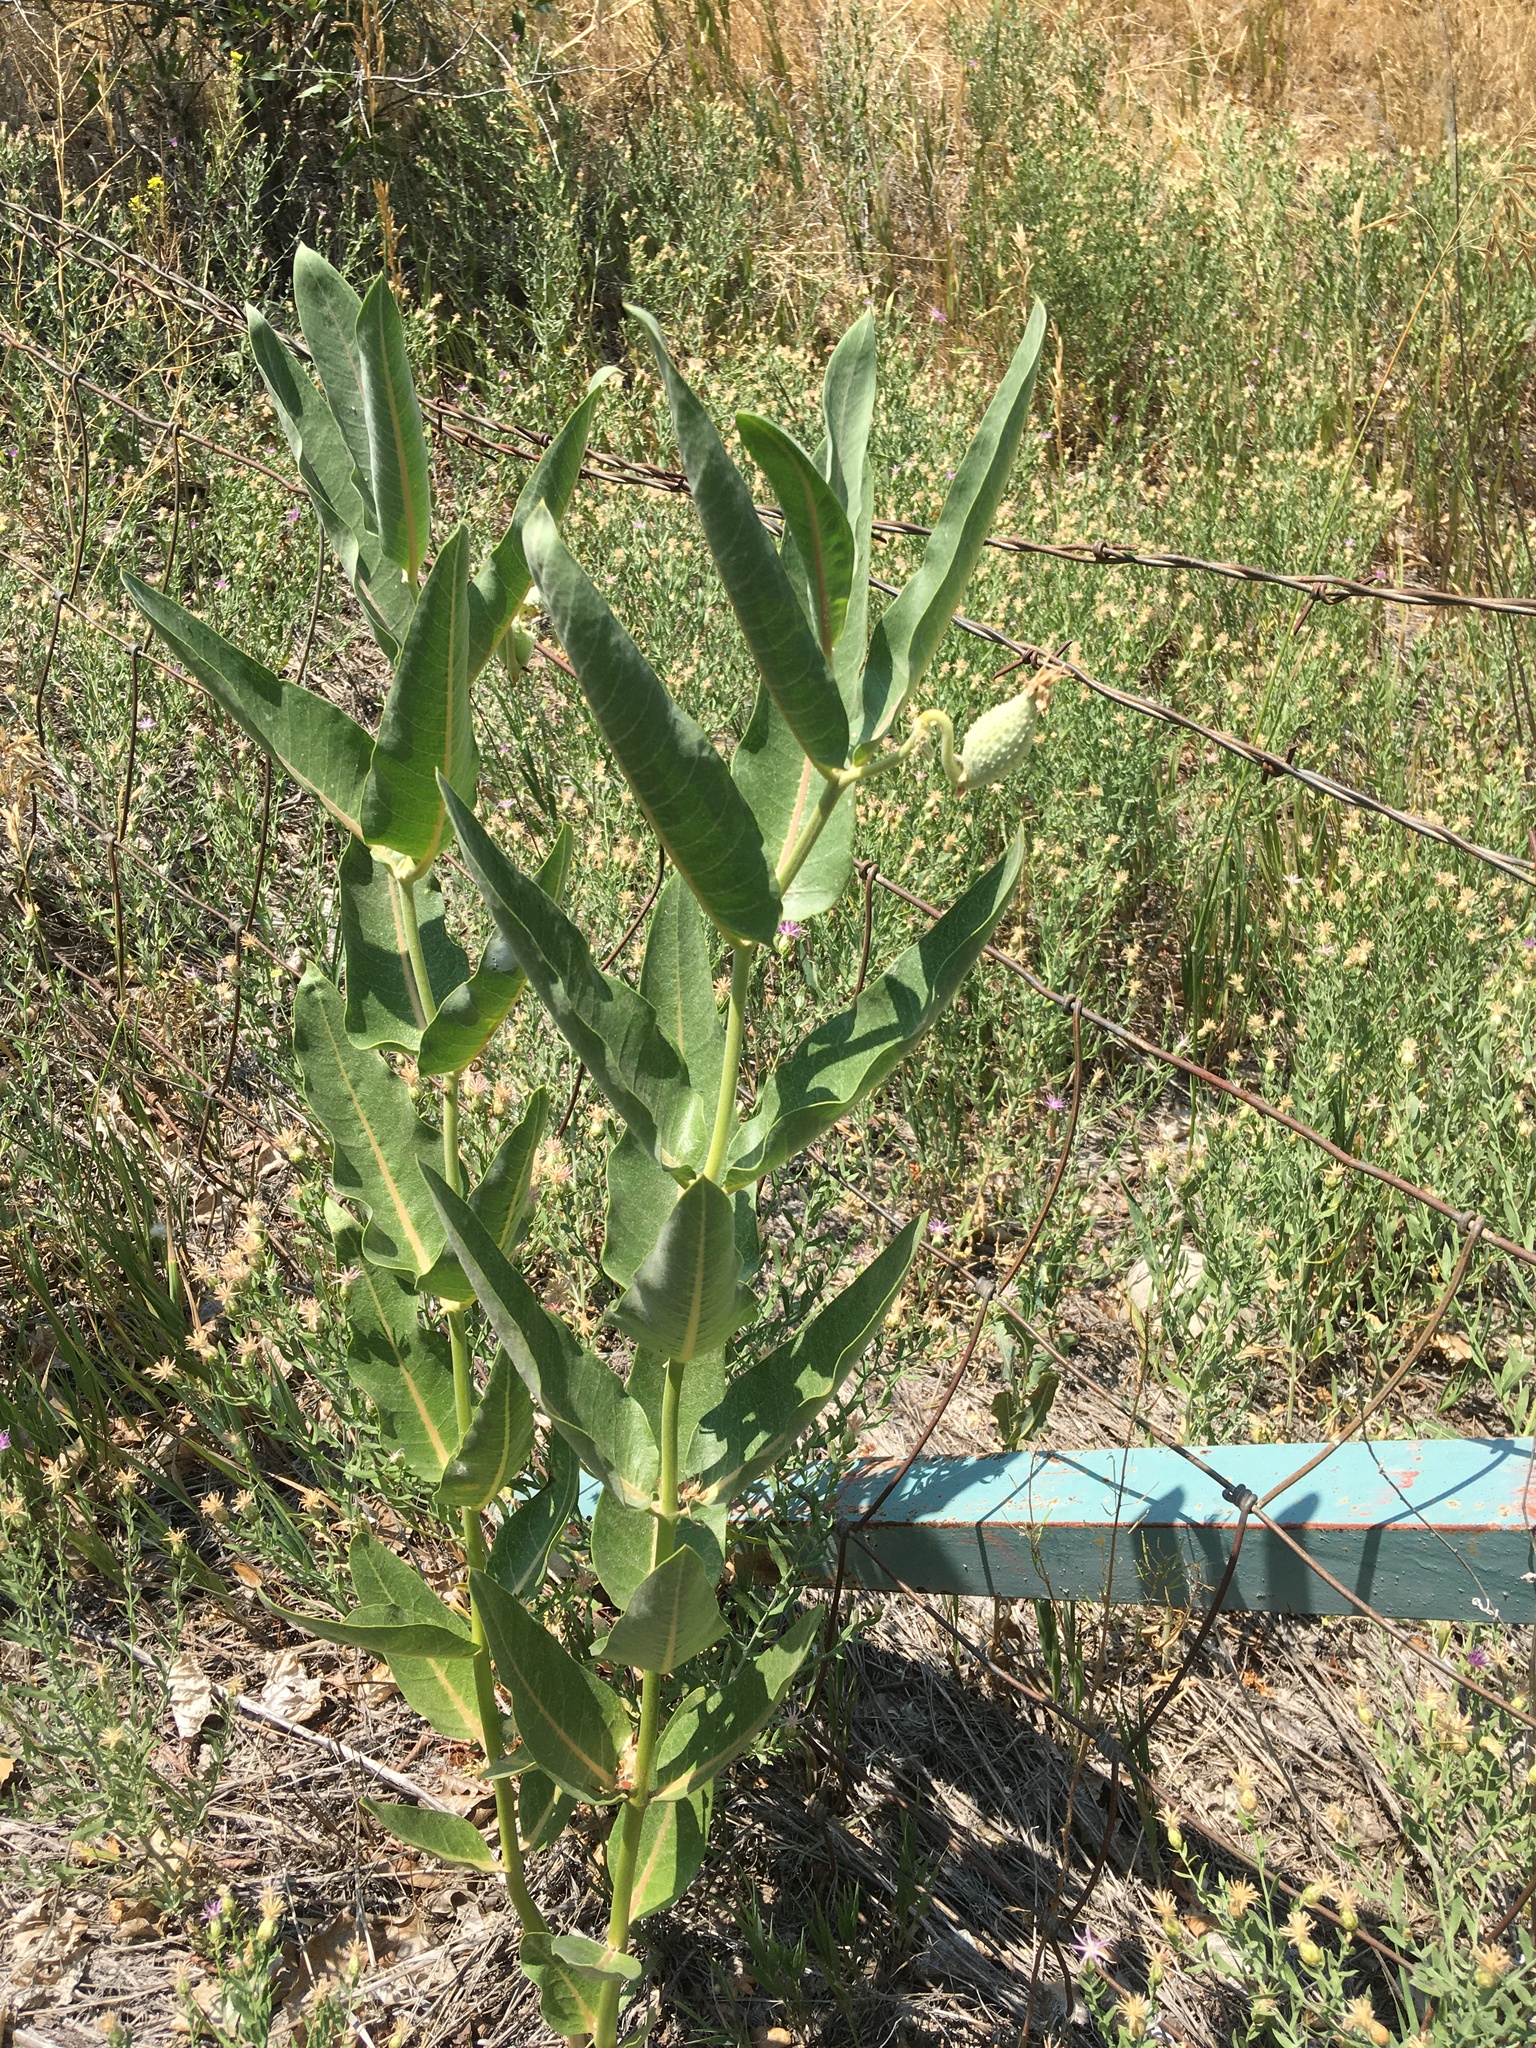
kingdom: Plantae
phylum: Tracheophyta
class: Magnoliopsida
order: Gentianales
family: Apocynaceae
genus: Asclepias
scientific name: Asclepias speciosa
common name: Showy milkweed
